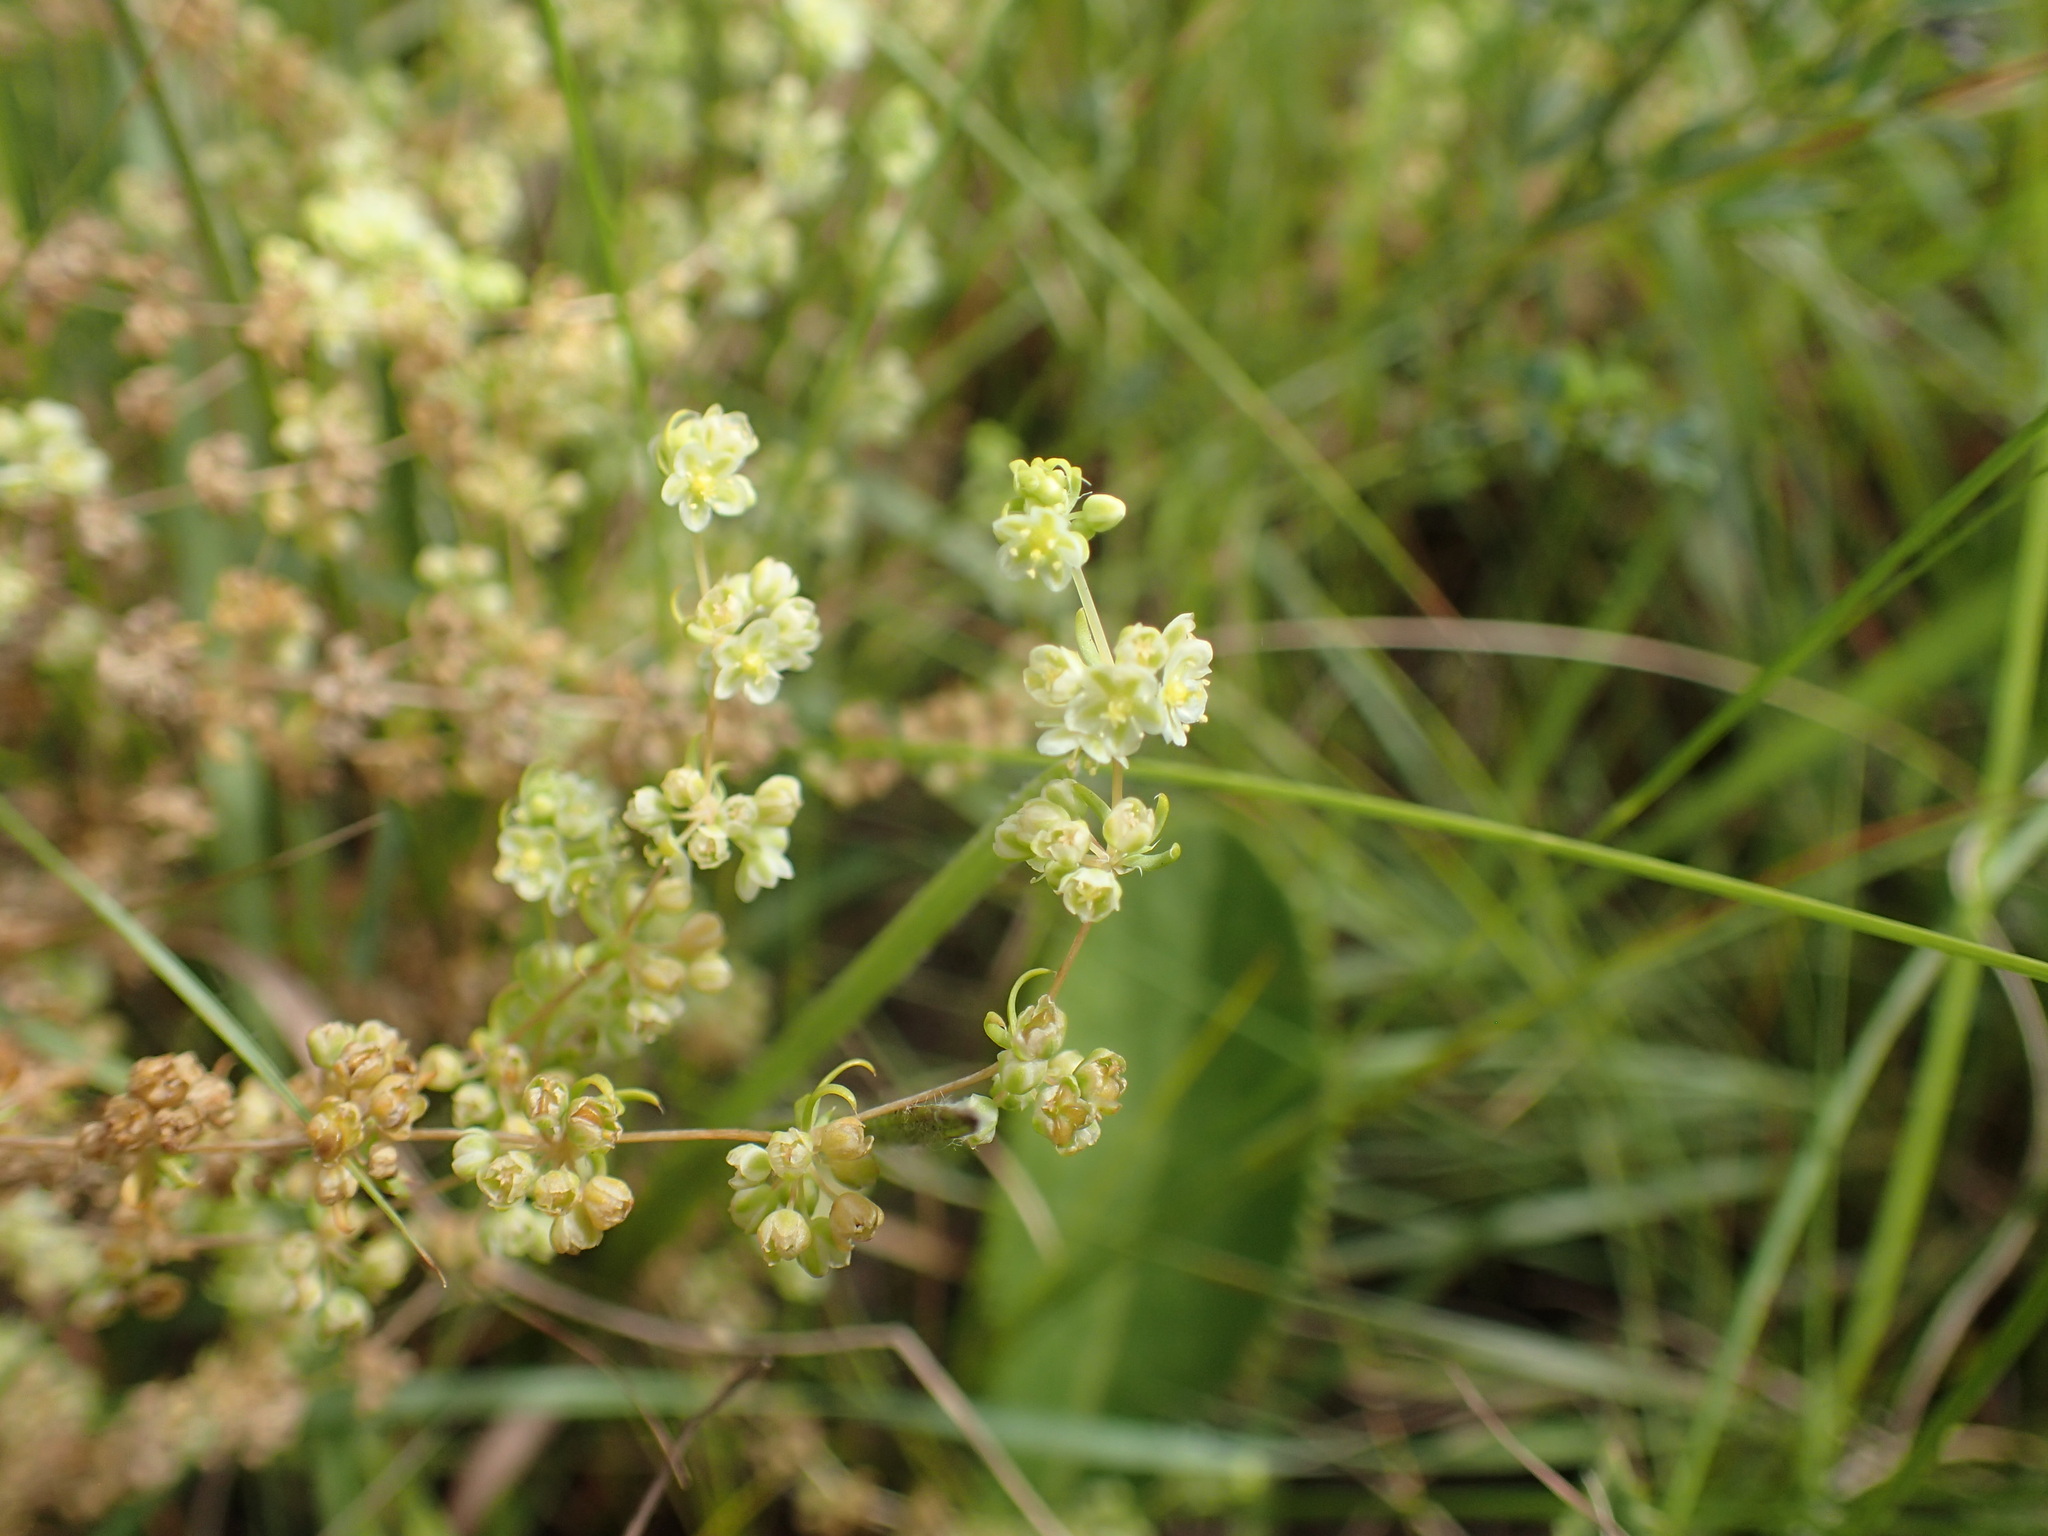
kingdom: Plantae
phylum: Tracheophyta
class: Magnoliopsida
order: Caryophyllales
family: Molluginaceae
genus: Psammotropha
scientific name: Psammotropha myriantha
